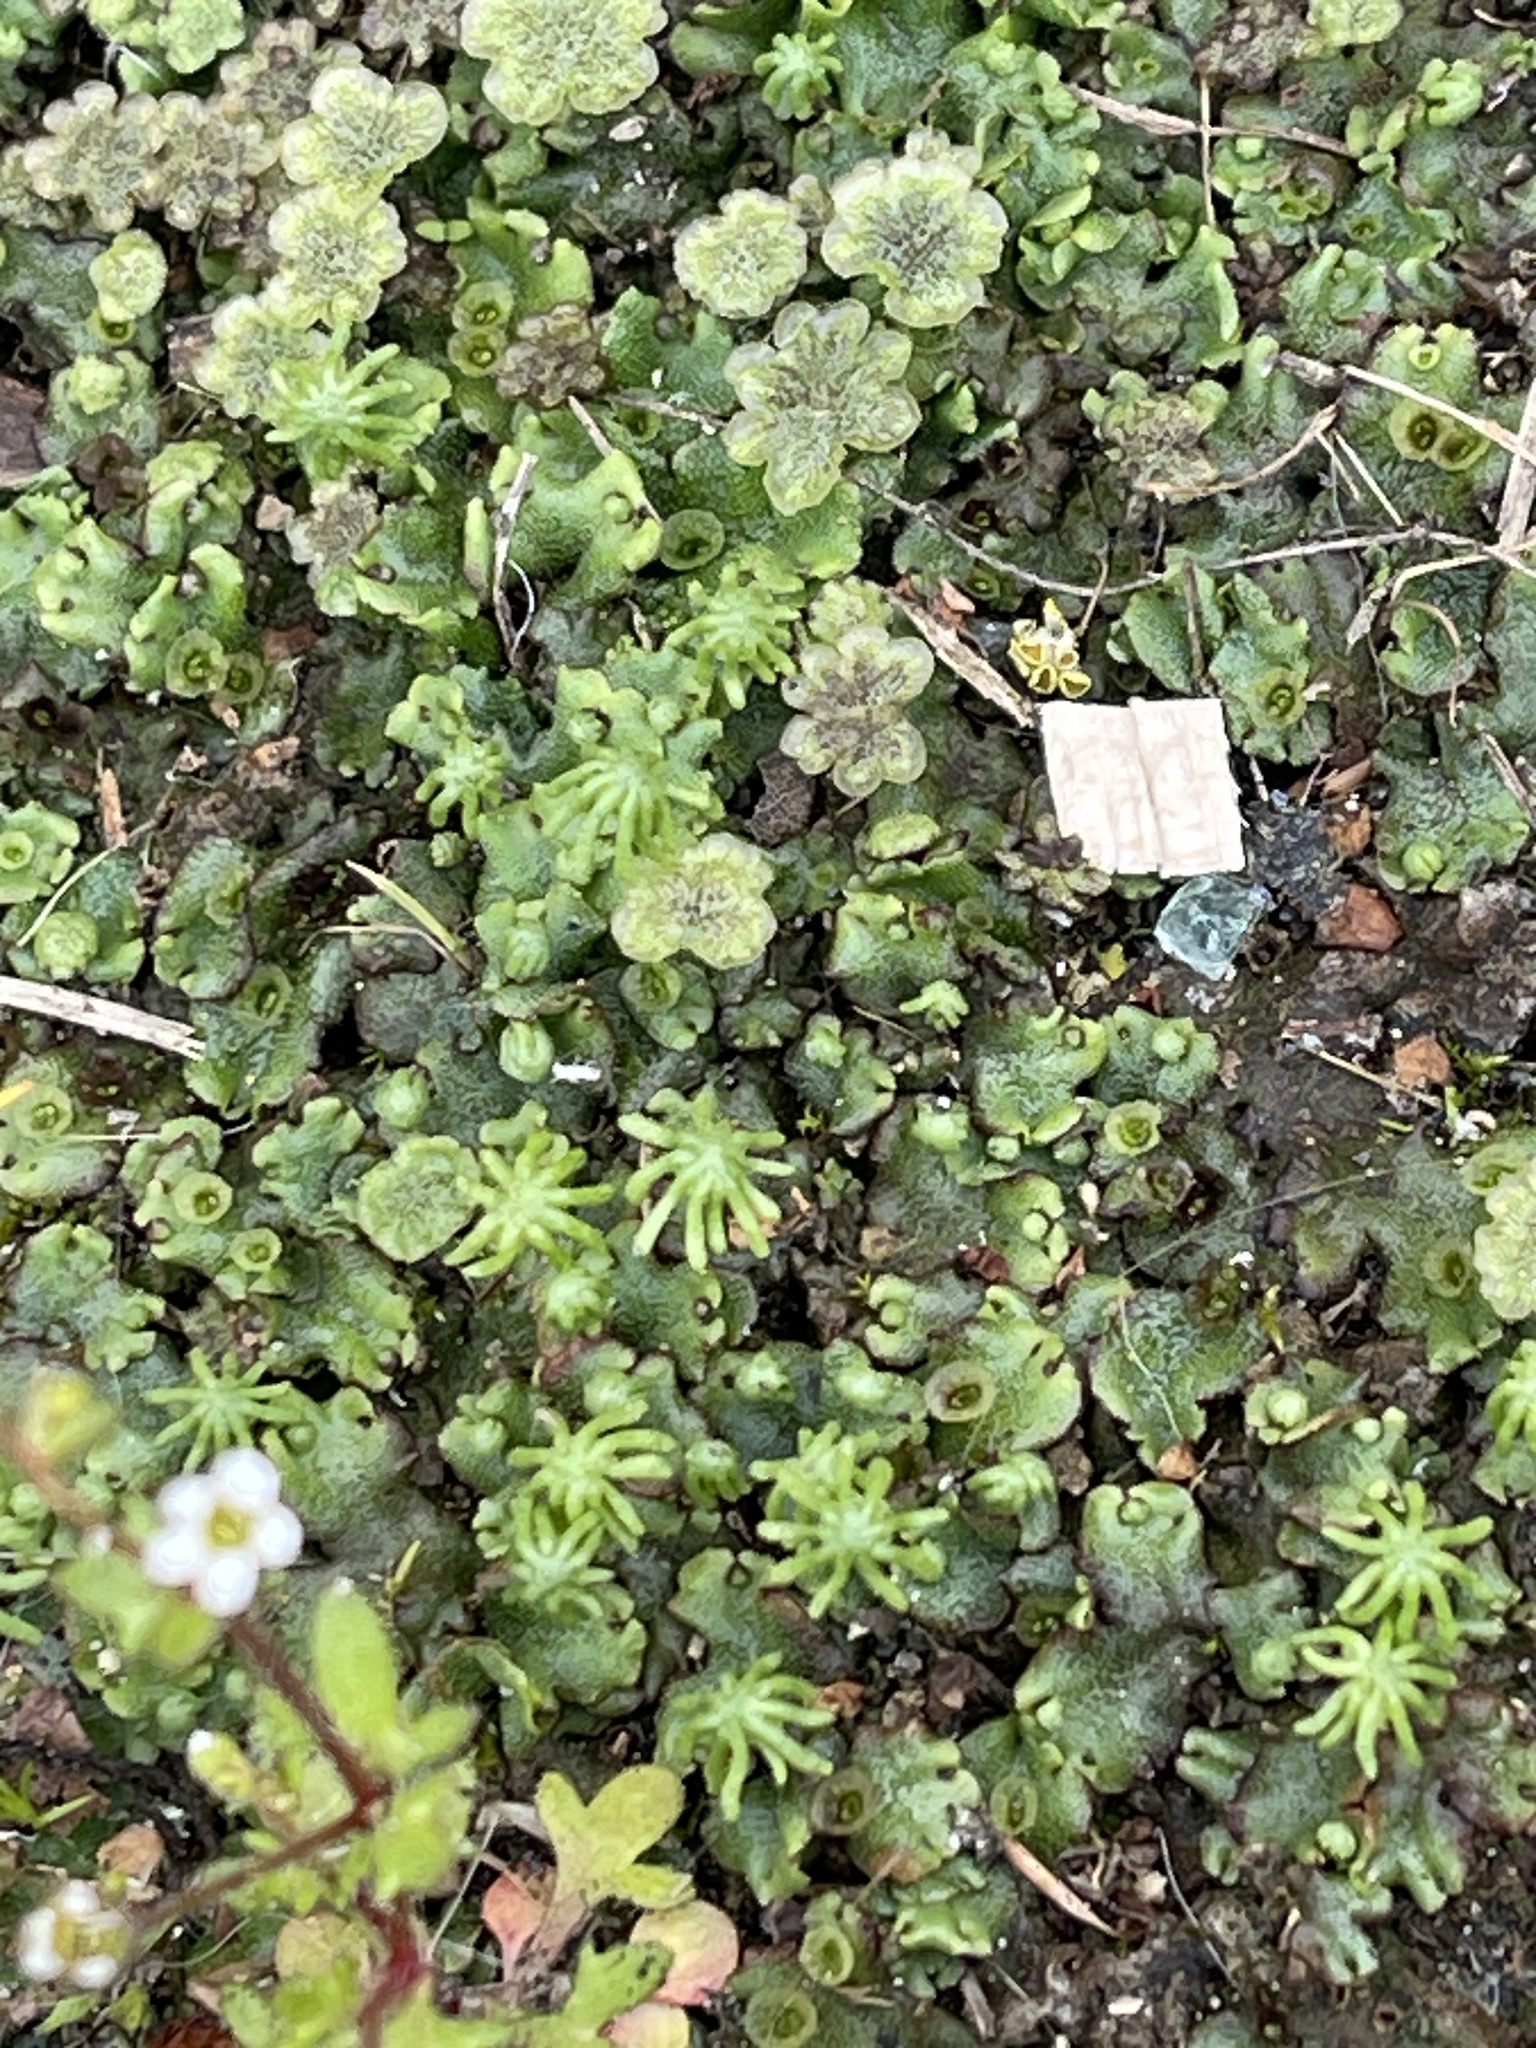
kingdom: Plantae
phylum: Marchantiophyta
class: Marchantiopsida
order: Marchantiales
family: Marchantiaceae
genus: Marchantia
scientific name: Marchantia polymorpha
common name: Common liverwort
